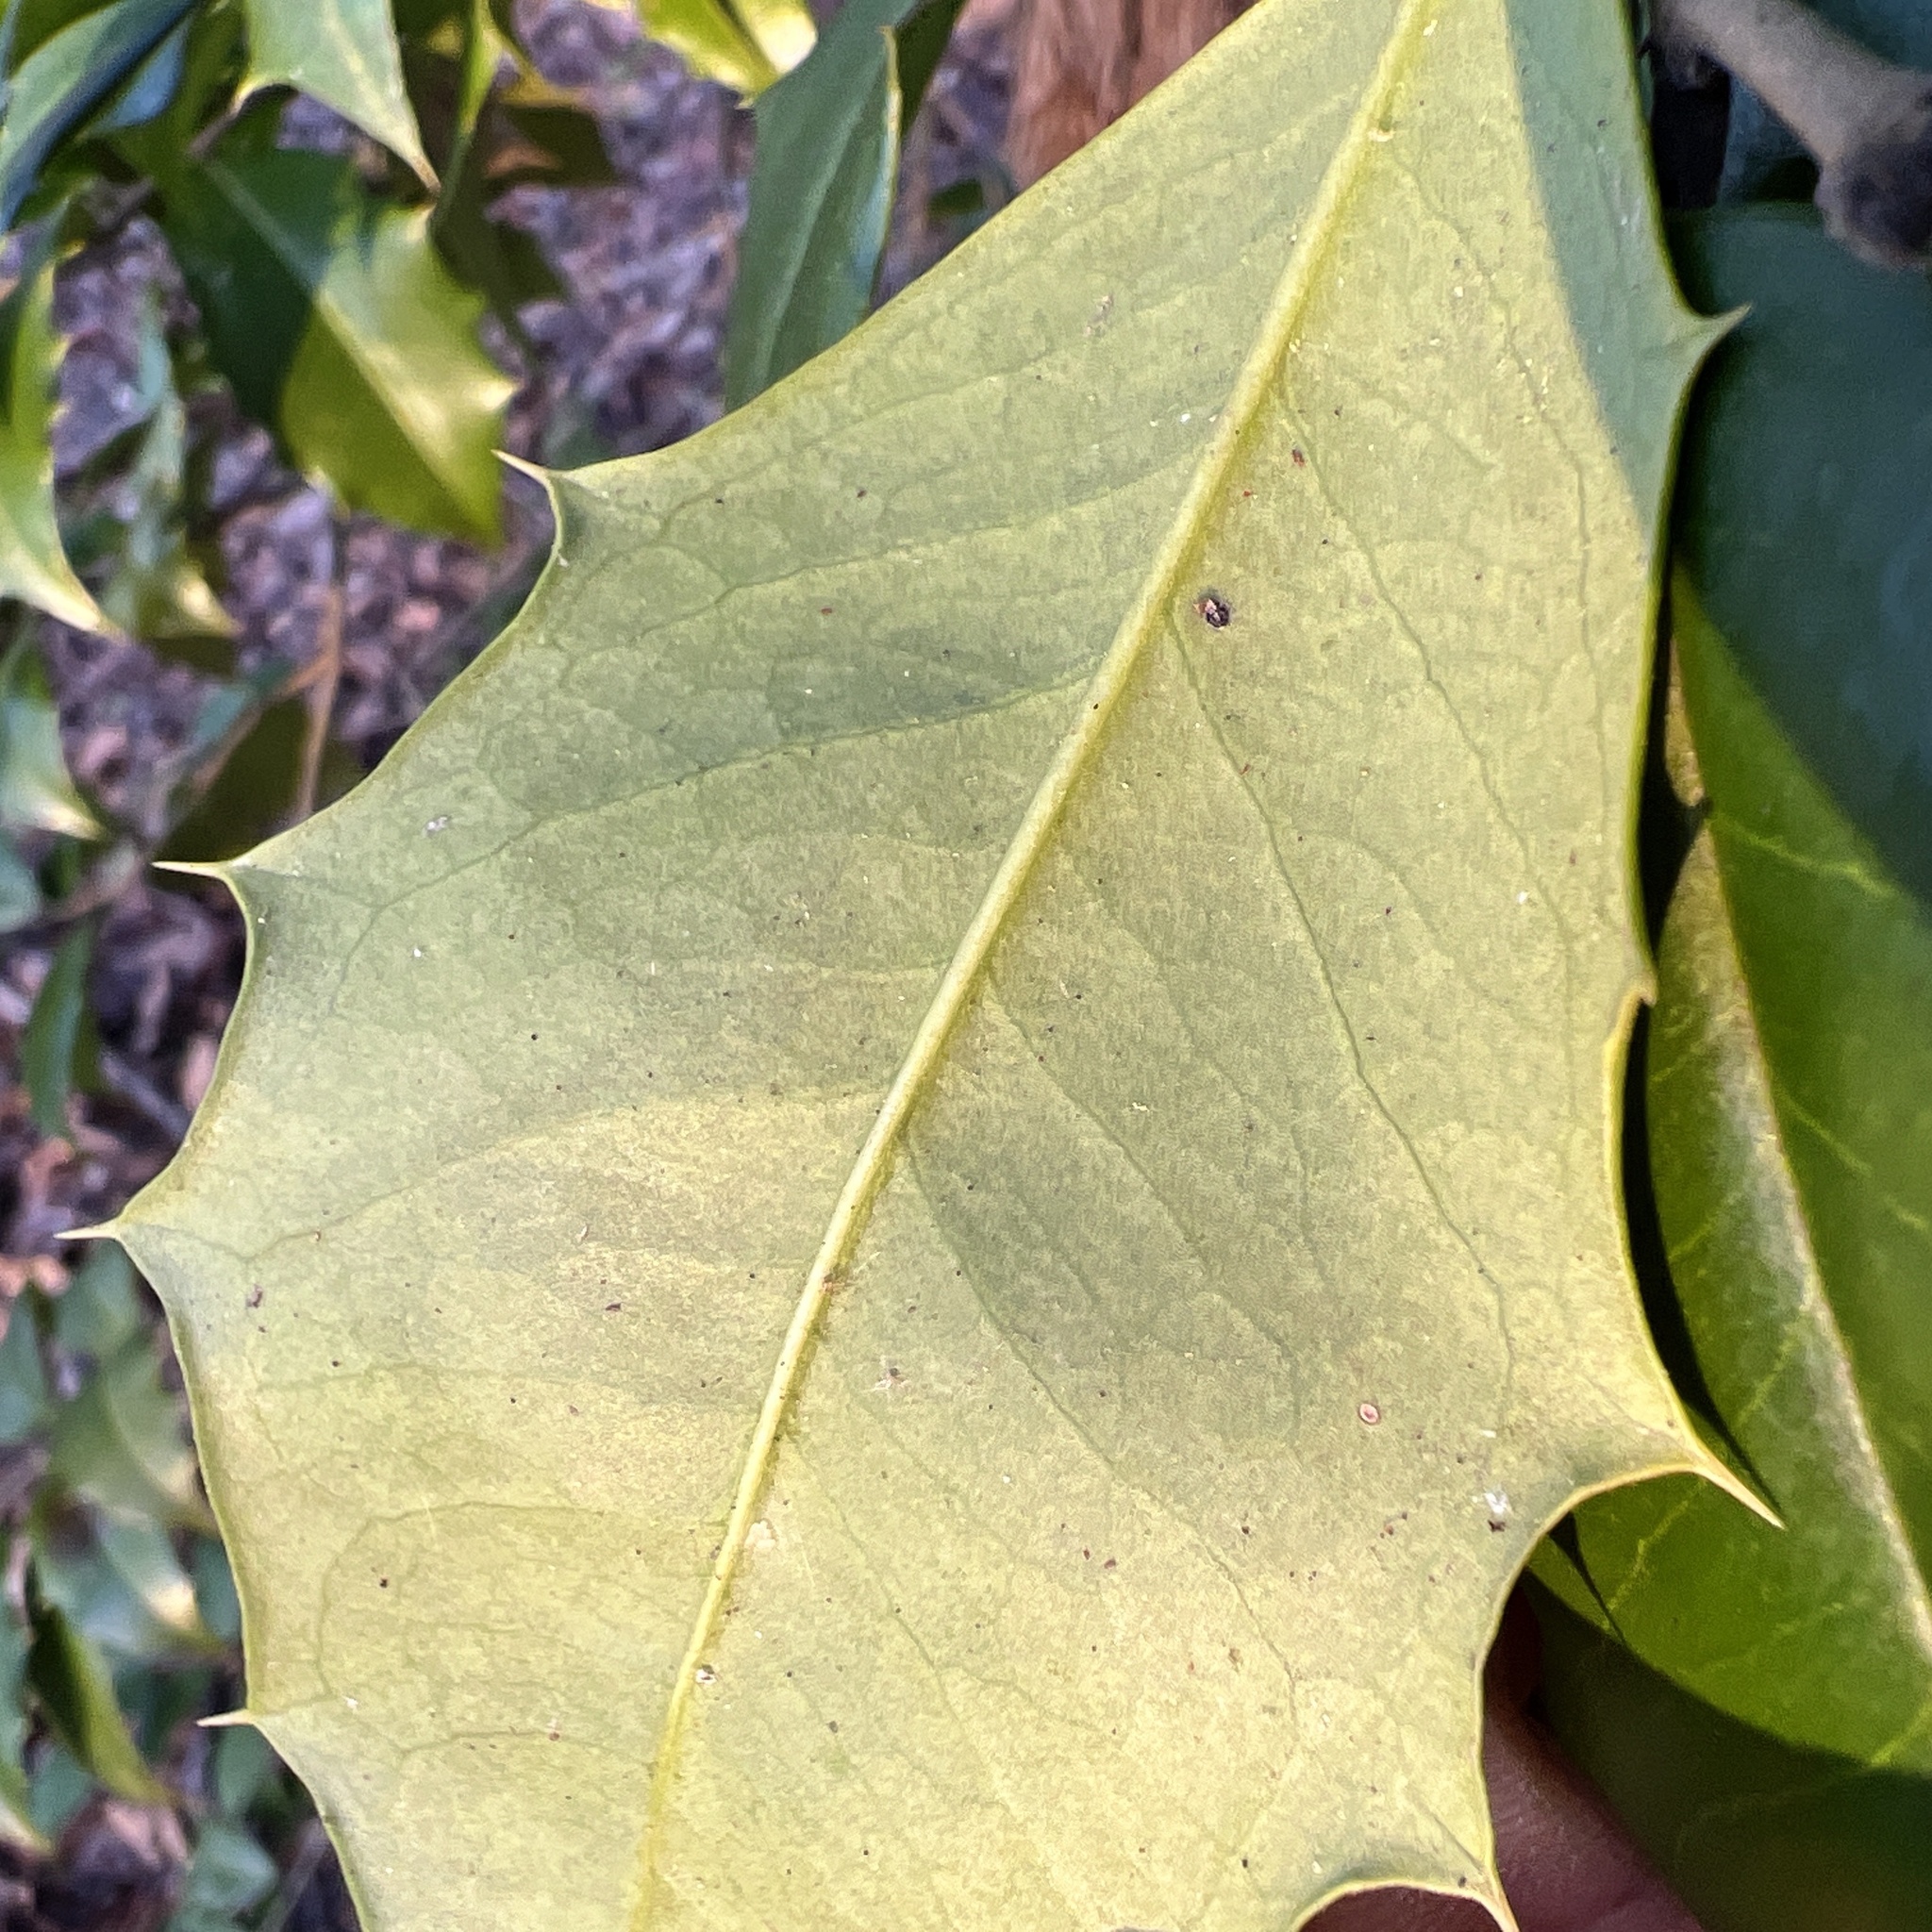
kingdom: Plantae
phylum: Tracheophyta
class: Magnoliopsida
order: Aquifoliales
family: Aquifoliaceae
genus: Ilex
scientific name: Ilex opaca
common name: American holly
